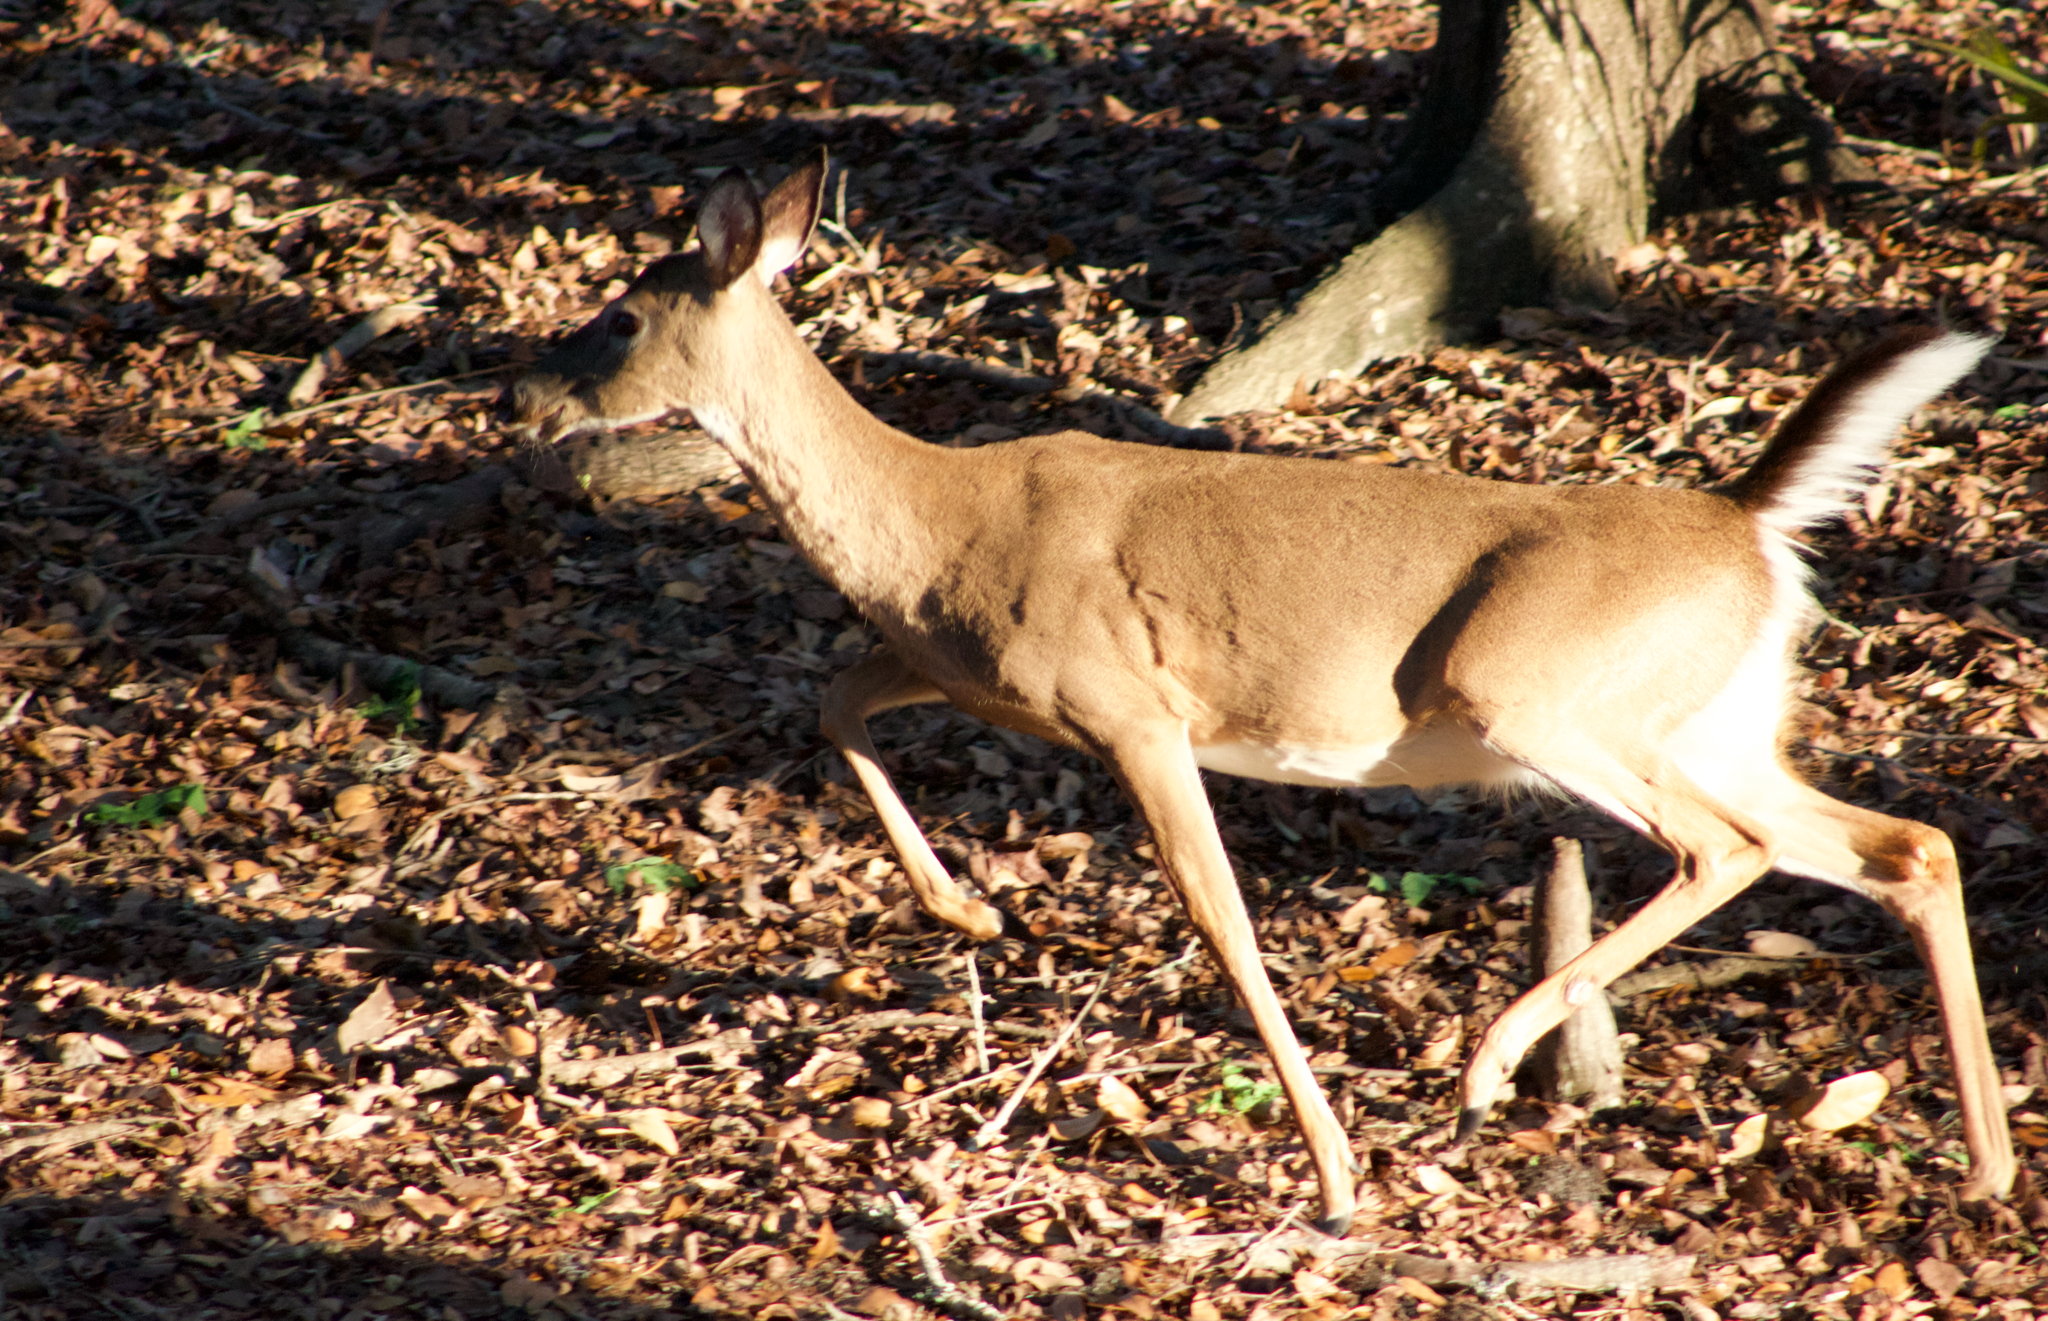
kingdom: Animalia
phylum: Chordata
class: Mammalia
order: Artiodactyla
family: Cervidae
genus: Odocoileus
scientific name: Odocoileus virginianus
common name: White-tailed deer
